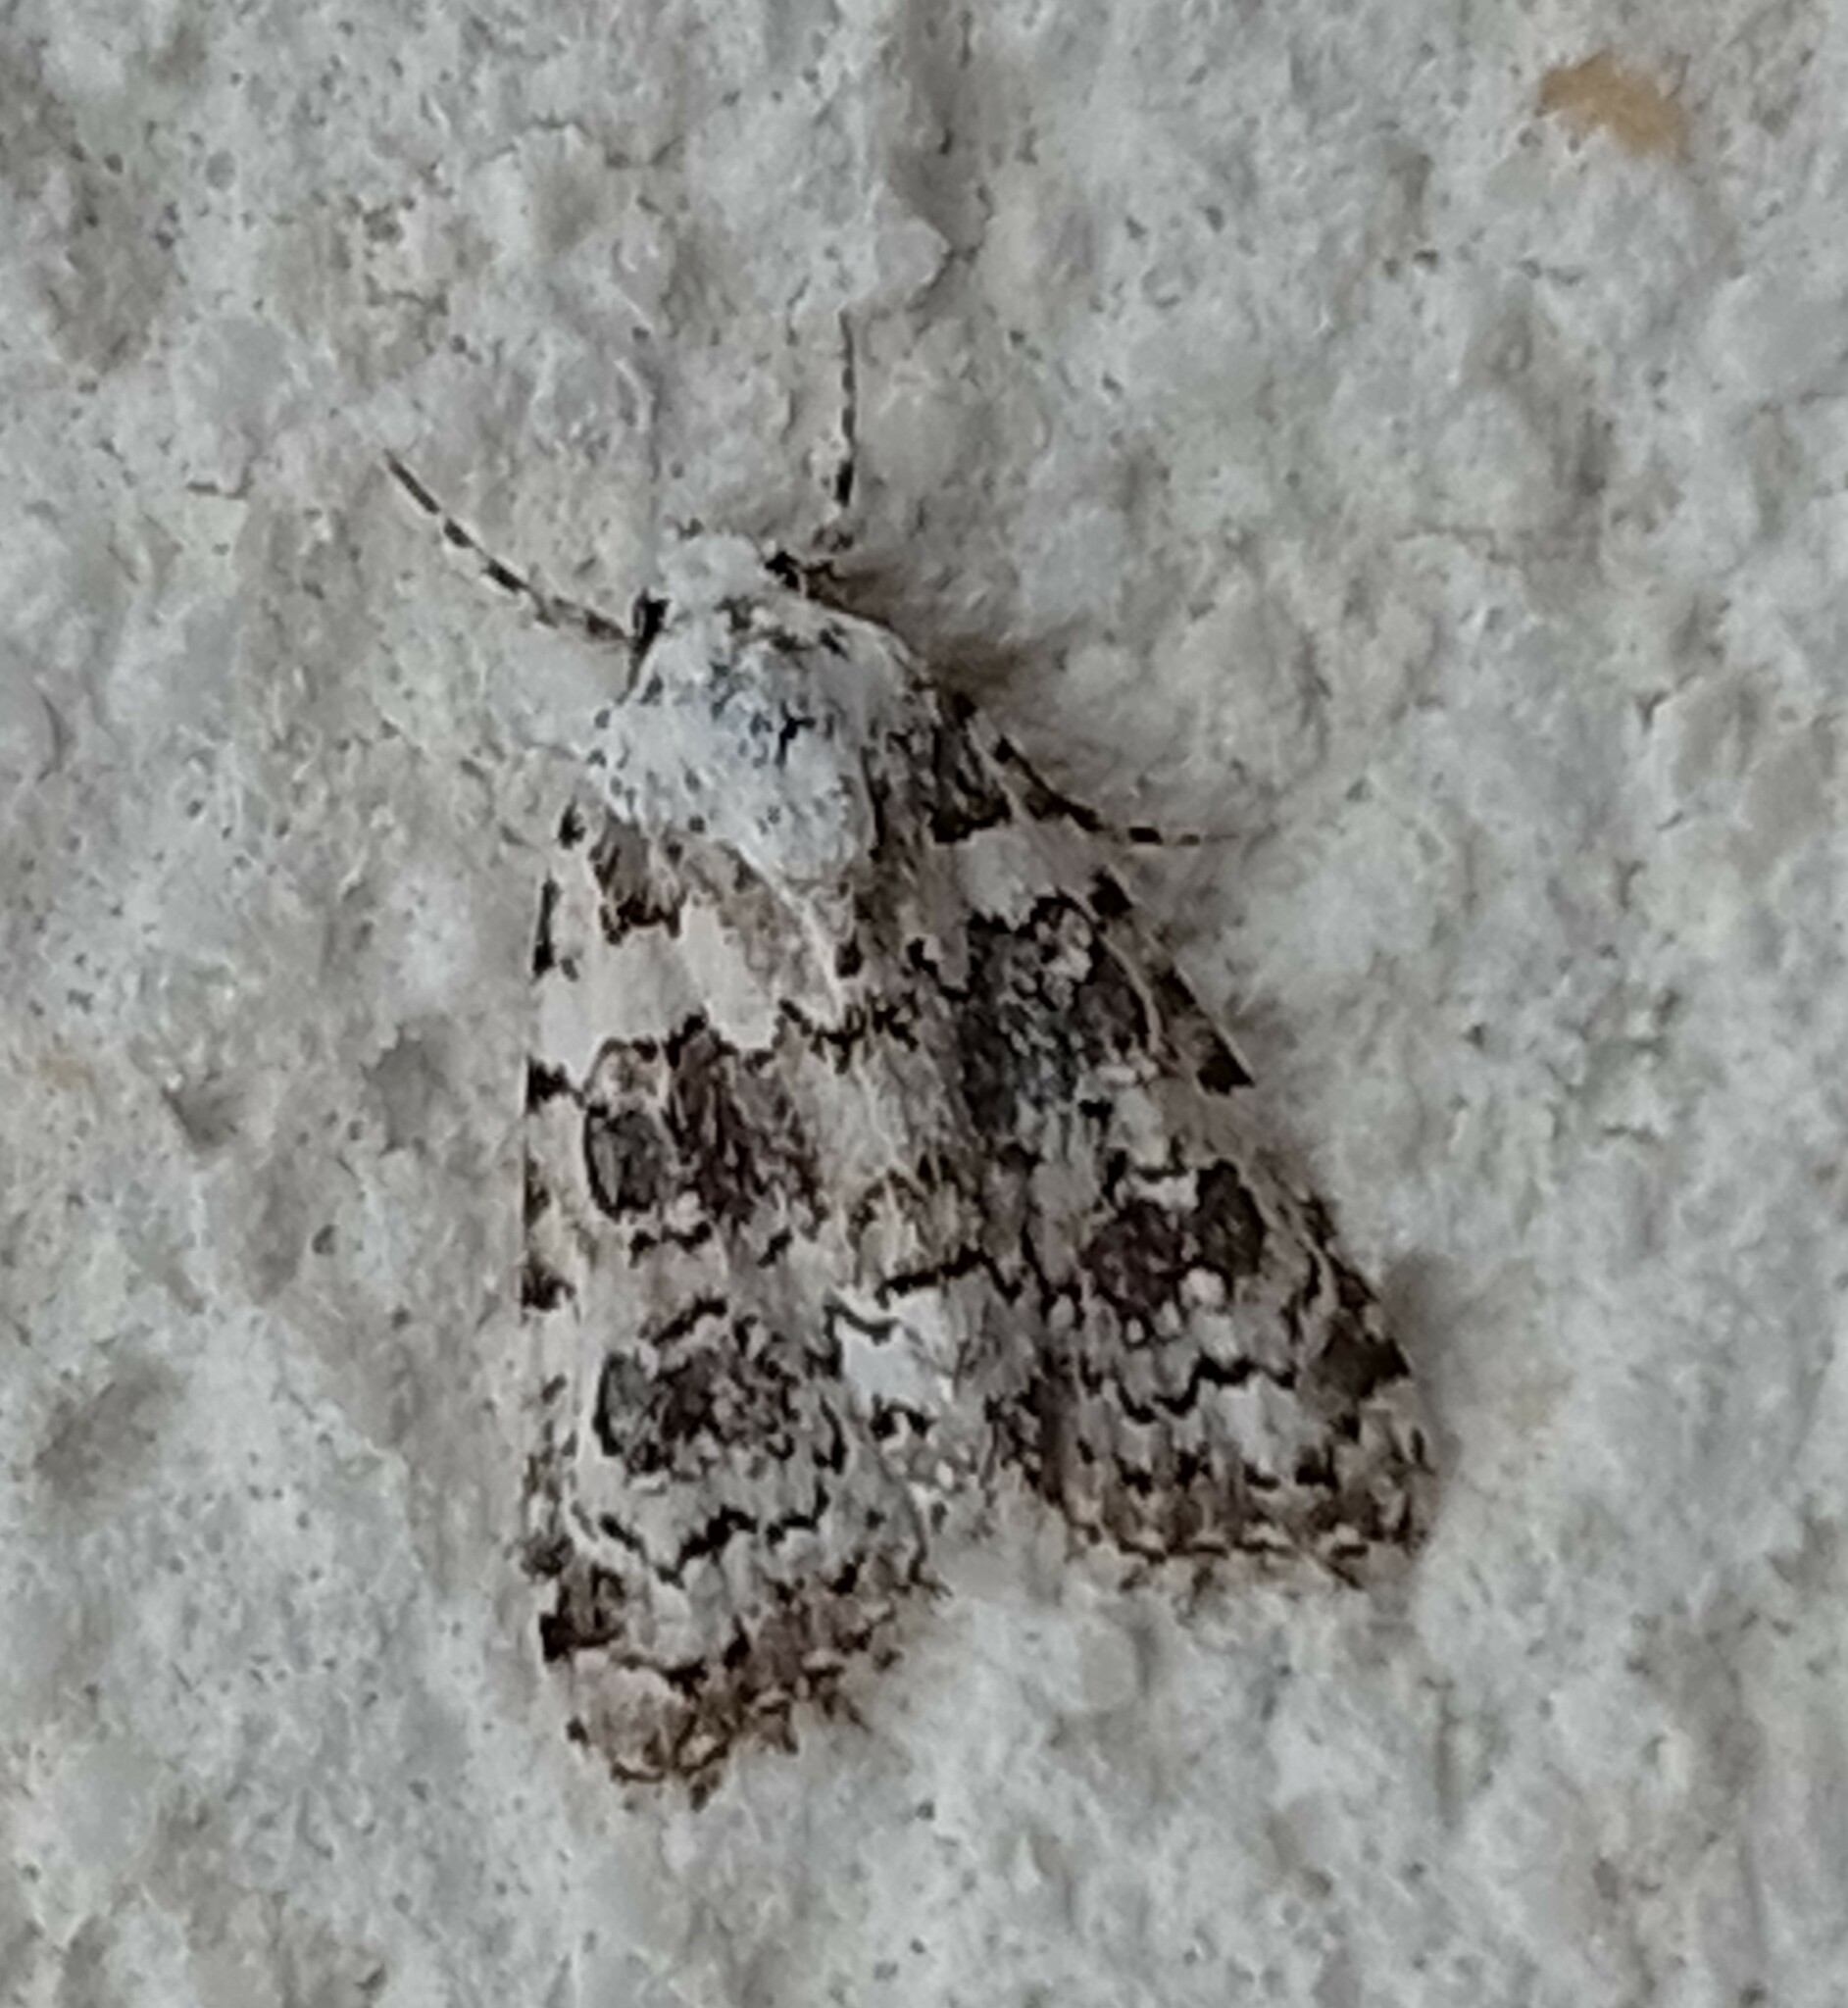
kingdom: Animalia
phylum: Arthropoda
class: Insecta
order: Lepidoptera
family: Noctuidae
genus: Bryophila
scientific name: Bryophila domestica
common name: Marbled beauty
